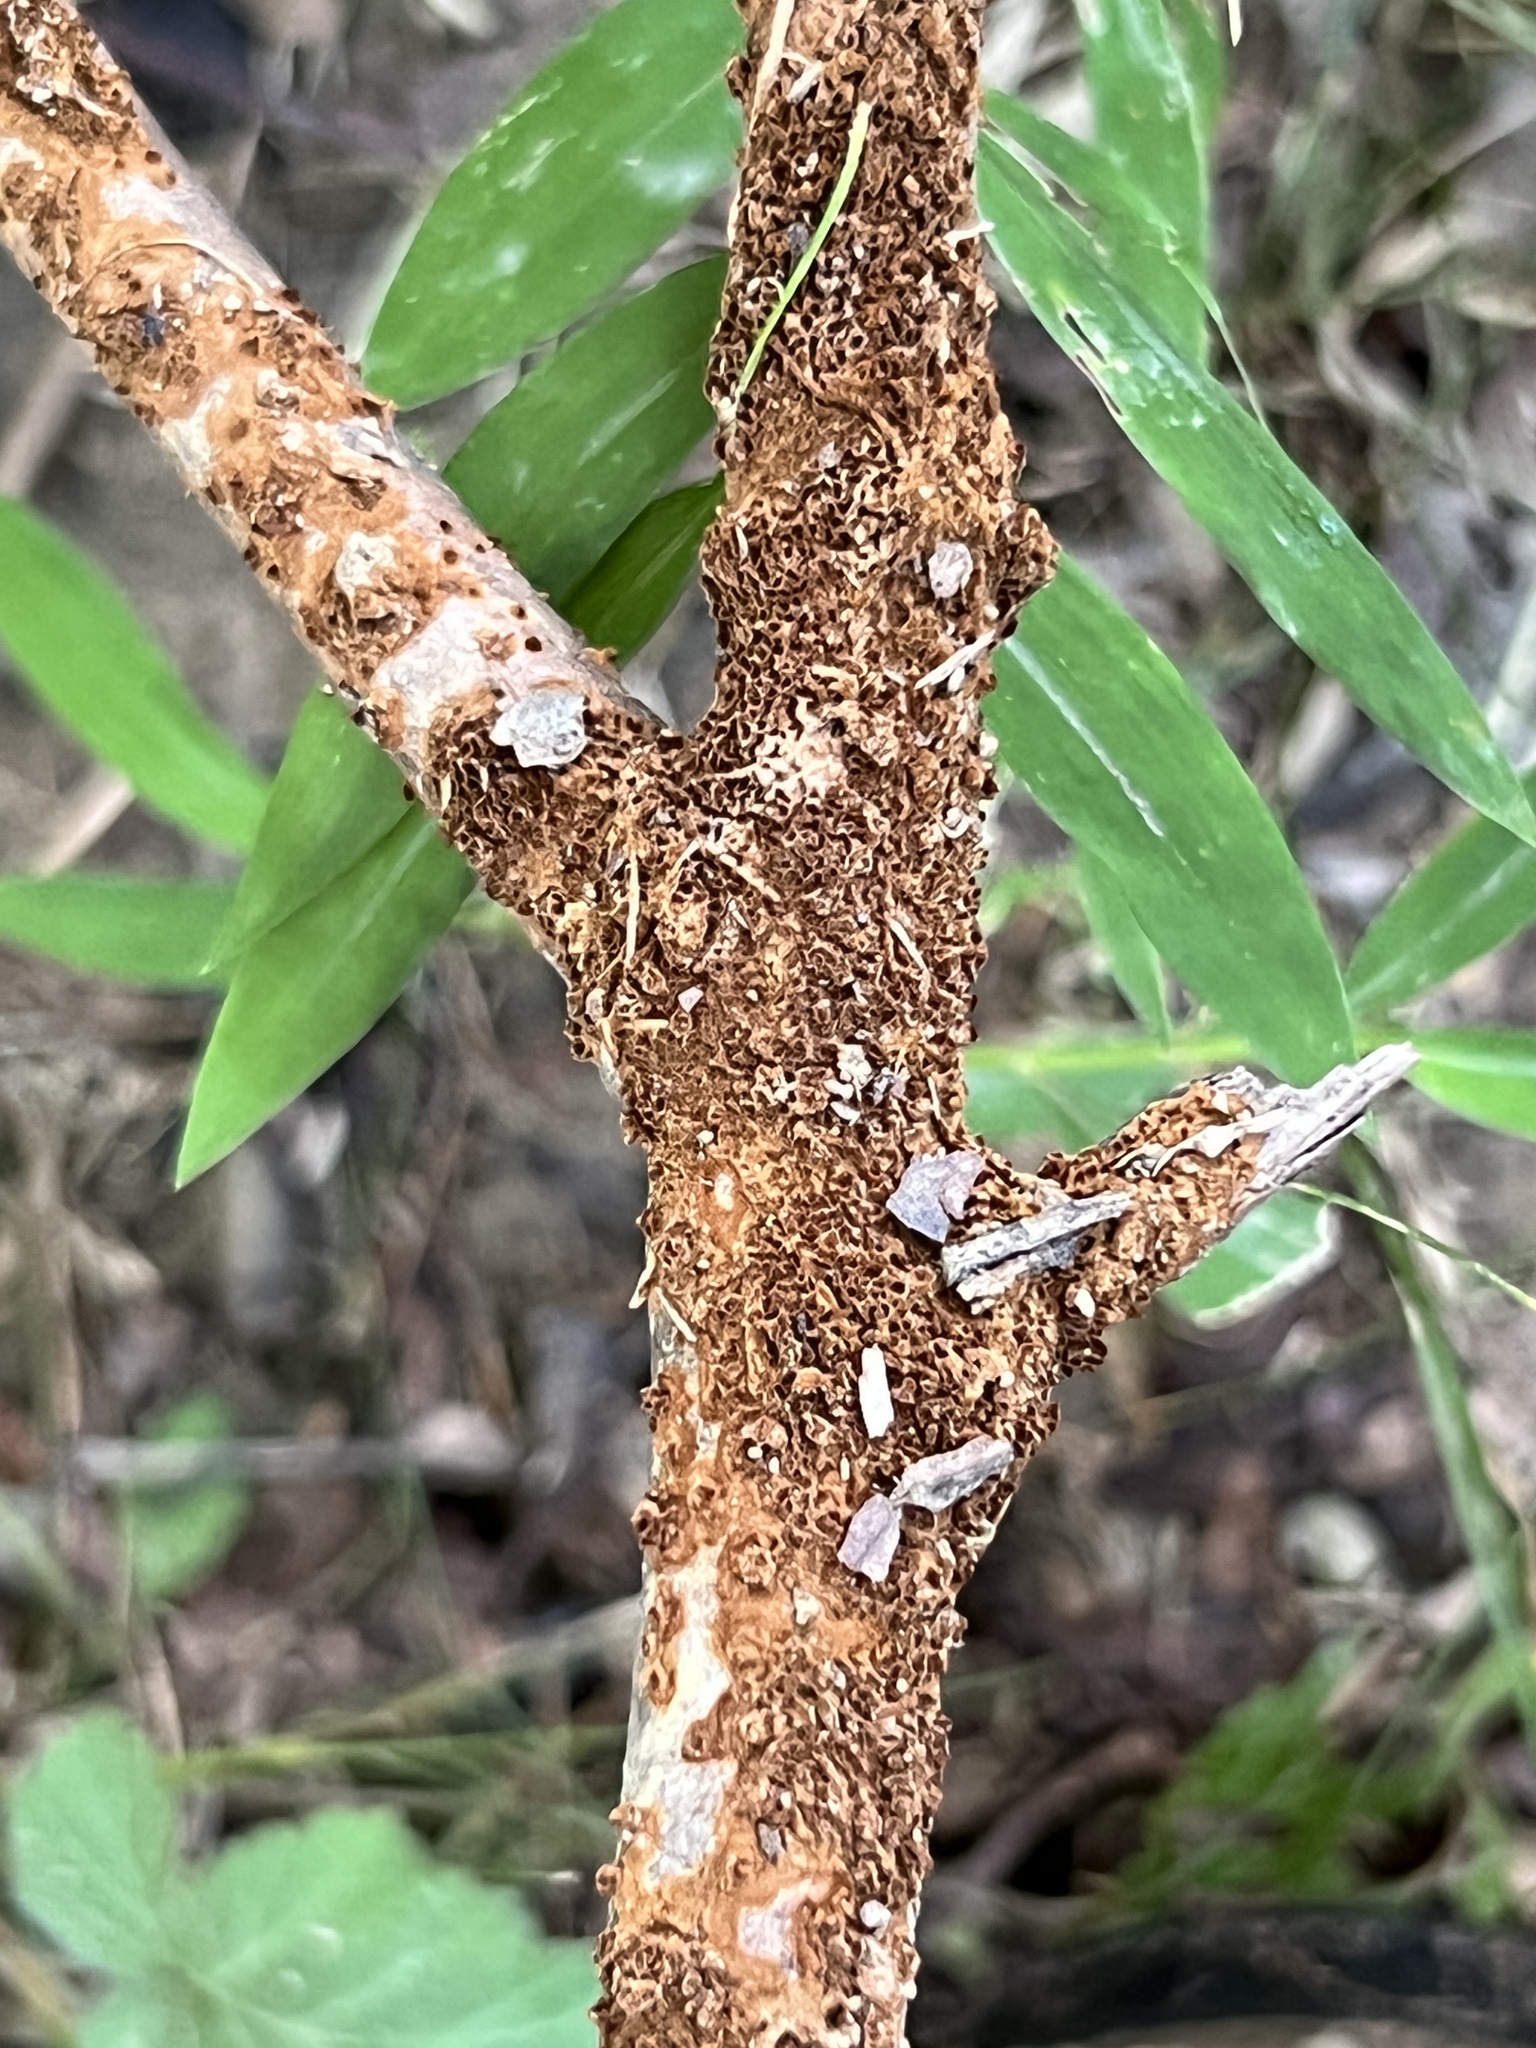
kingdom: Fungi
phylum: Basidiomycota
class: Agaricomycetes
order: Hymenochaetales
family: Hymenochaetaceae
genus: Hydnoporia
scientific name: Hydnoporia olivacea
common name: Brown-toothed crust fungus
